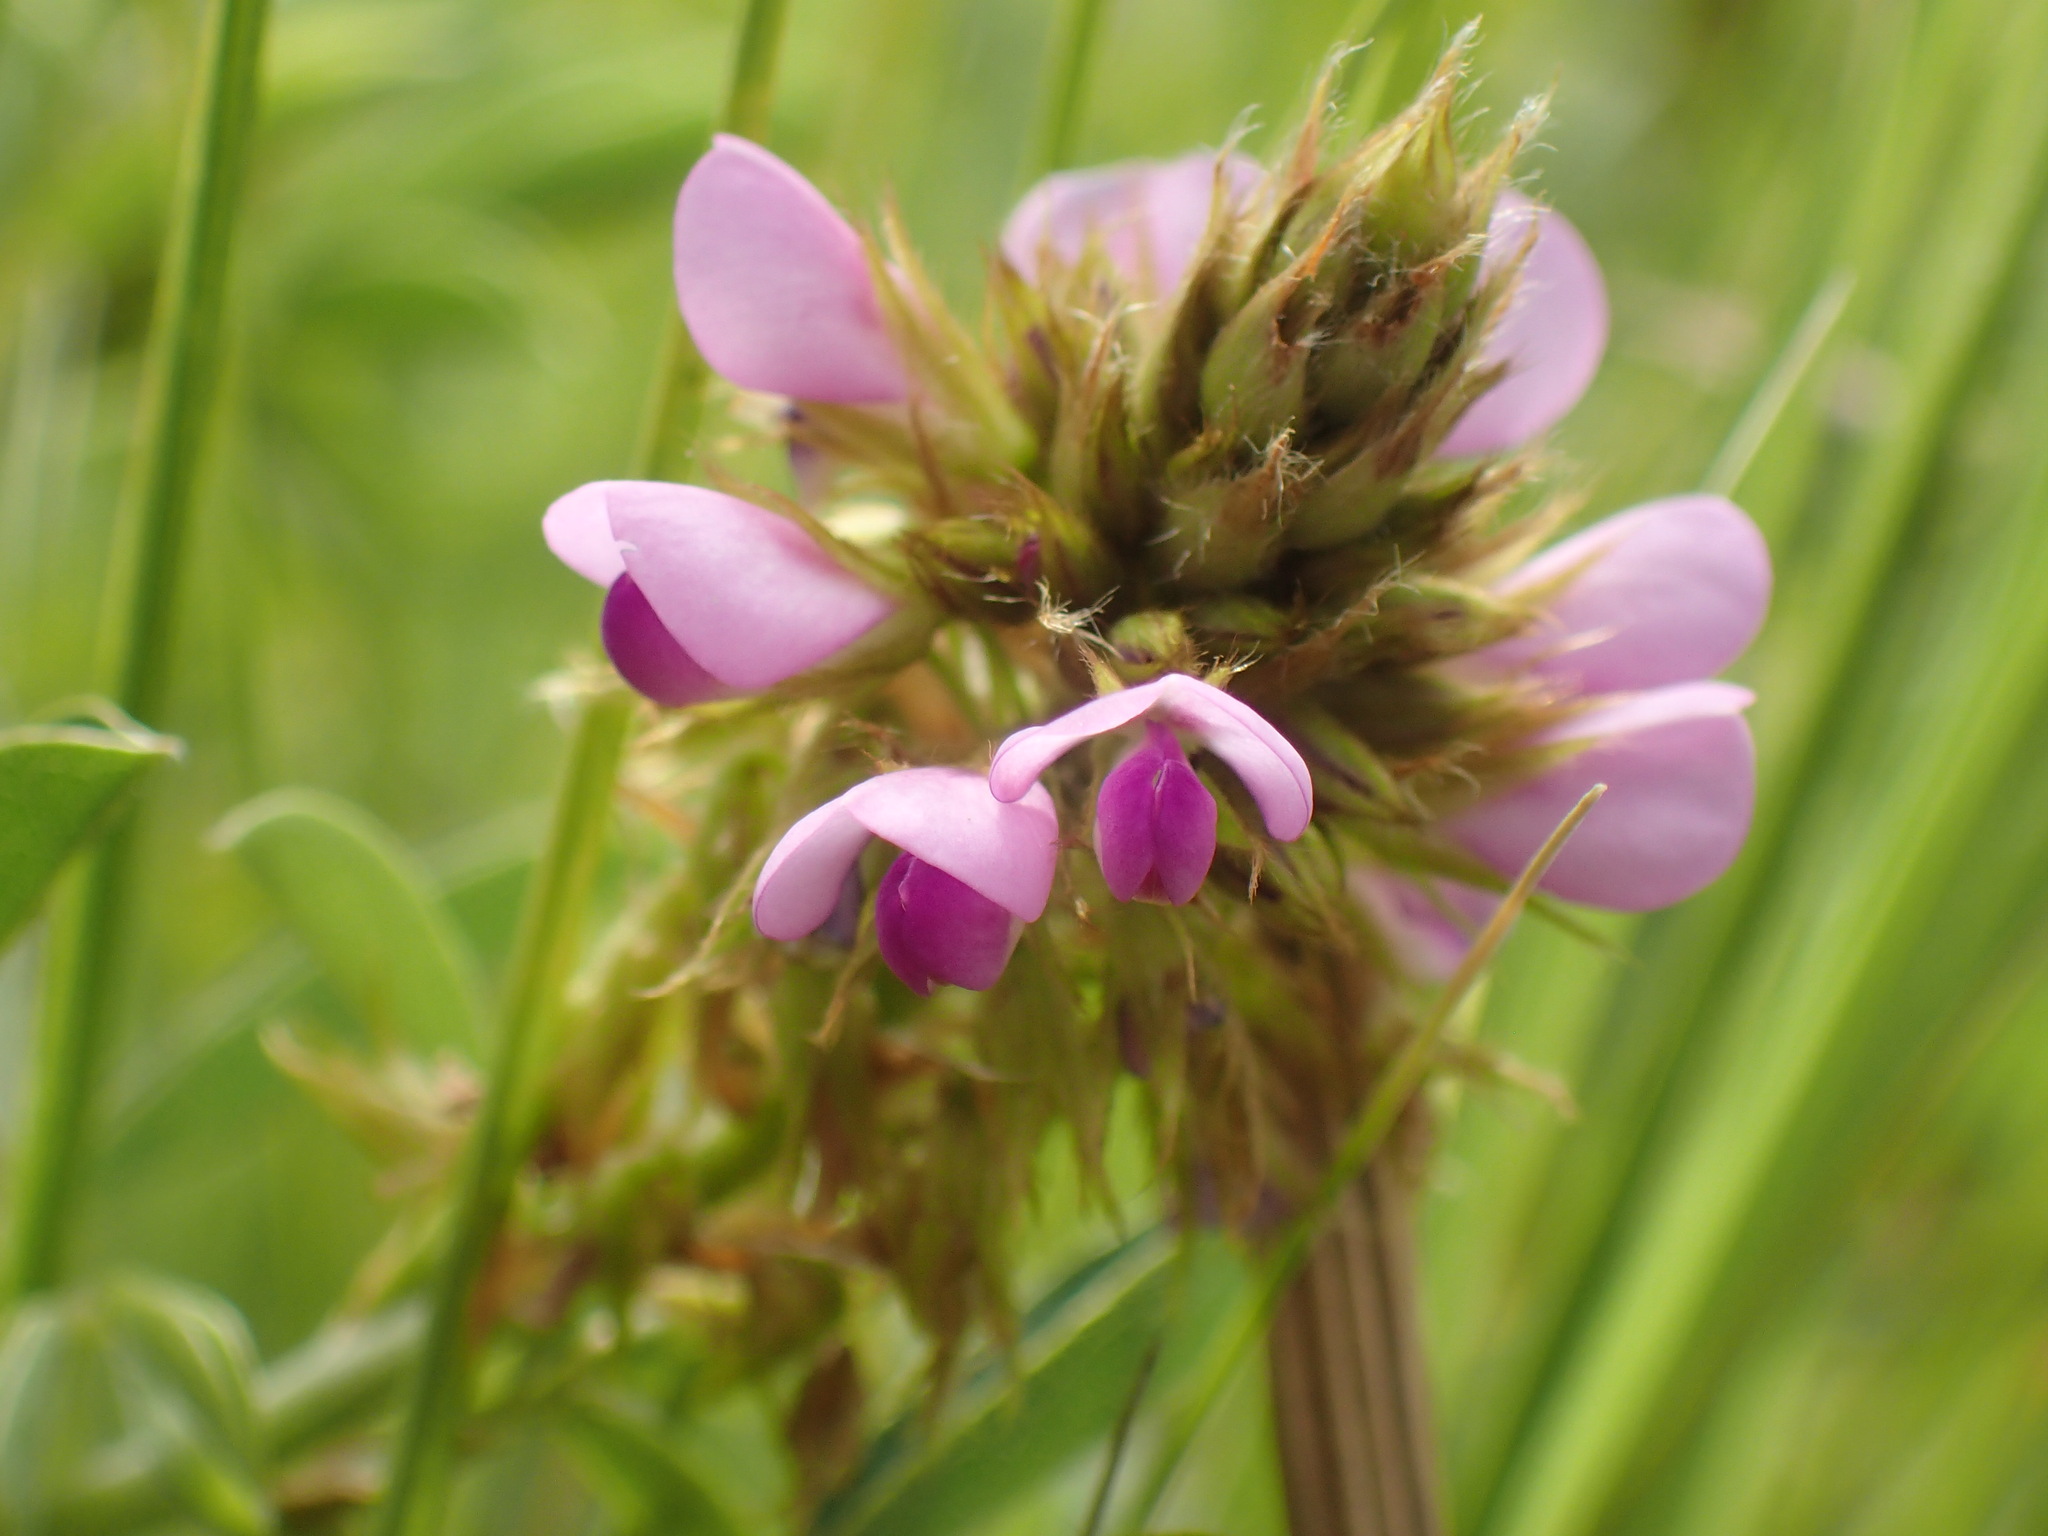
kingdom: Plantae
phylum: Tracheophyta
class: Magnoliopsida
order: Fabales
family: Fabaceae
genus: Grona
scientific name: Grona caffra
